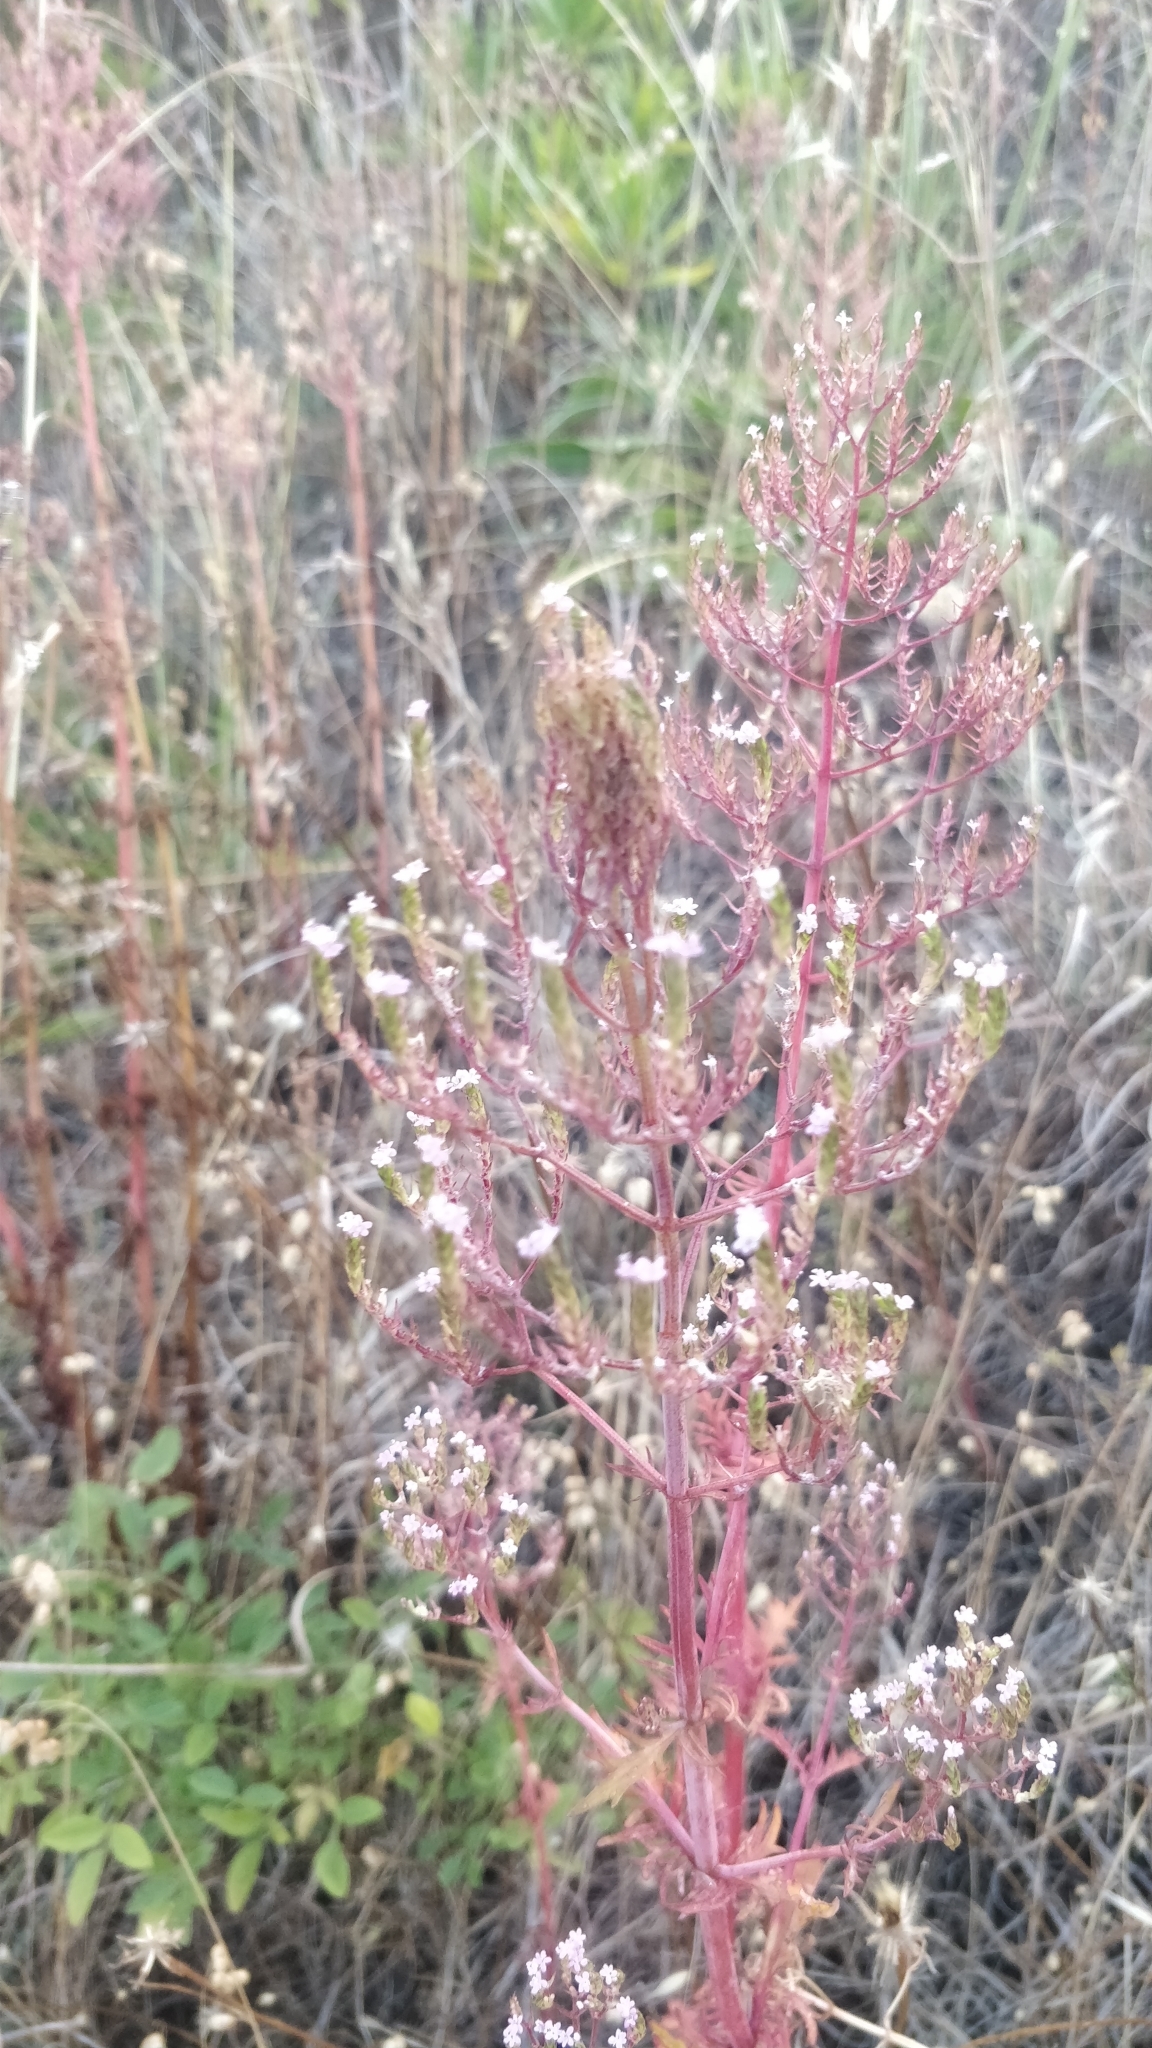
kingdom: Plantae
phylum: Tracheophyta
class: Magnoliopsida
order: Dipsacales
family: Caprifoliaceae
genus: Centranthus
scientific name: Centranthus calcitrapae
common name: Annual valerian
